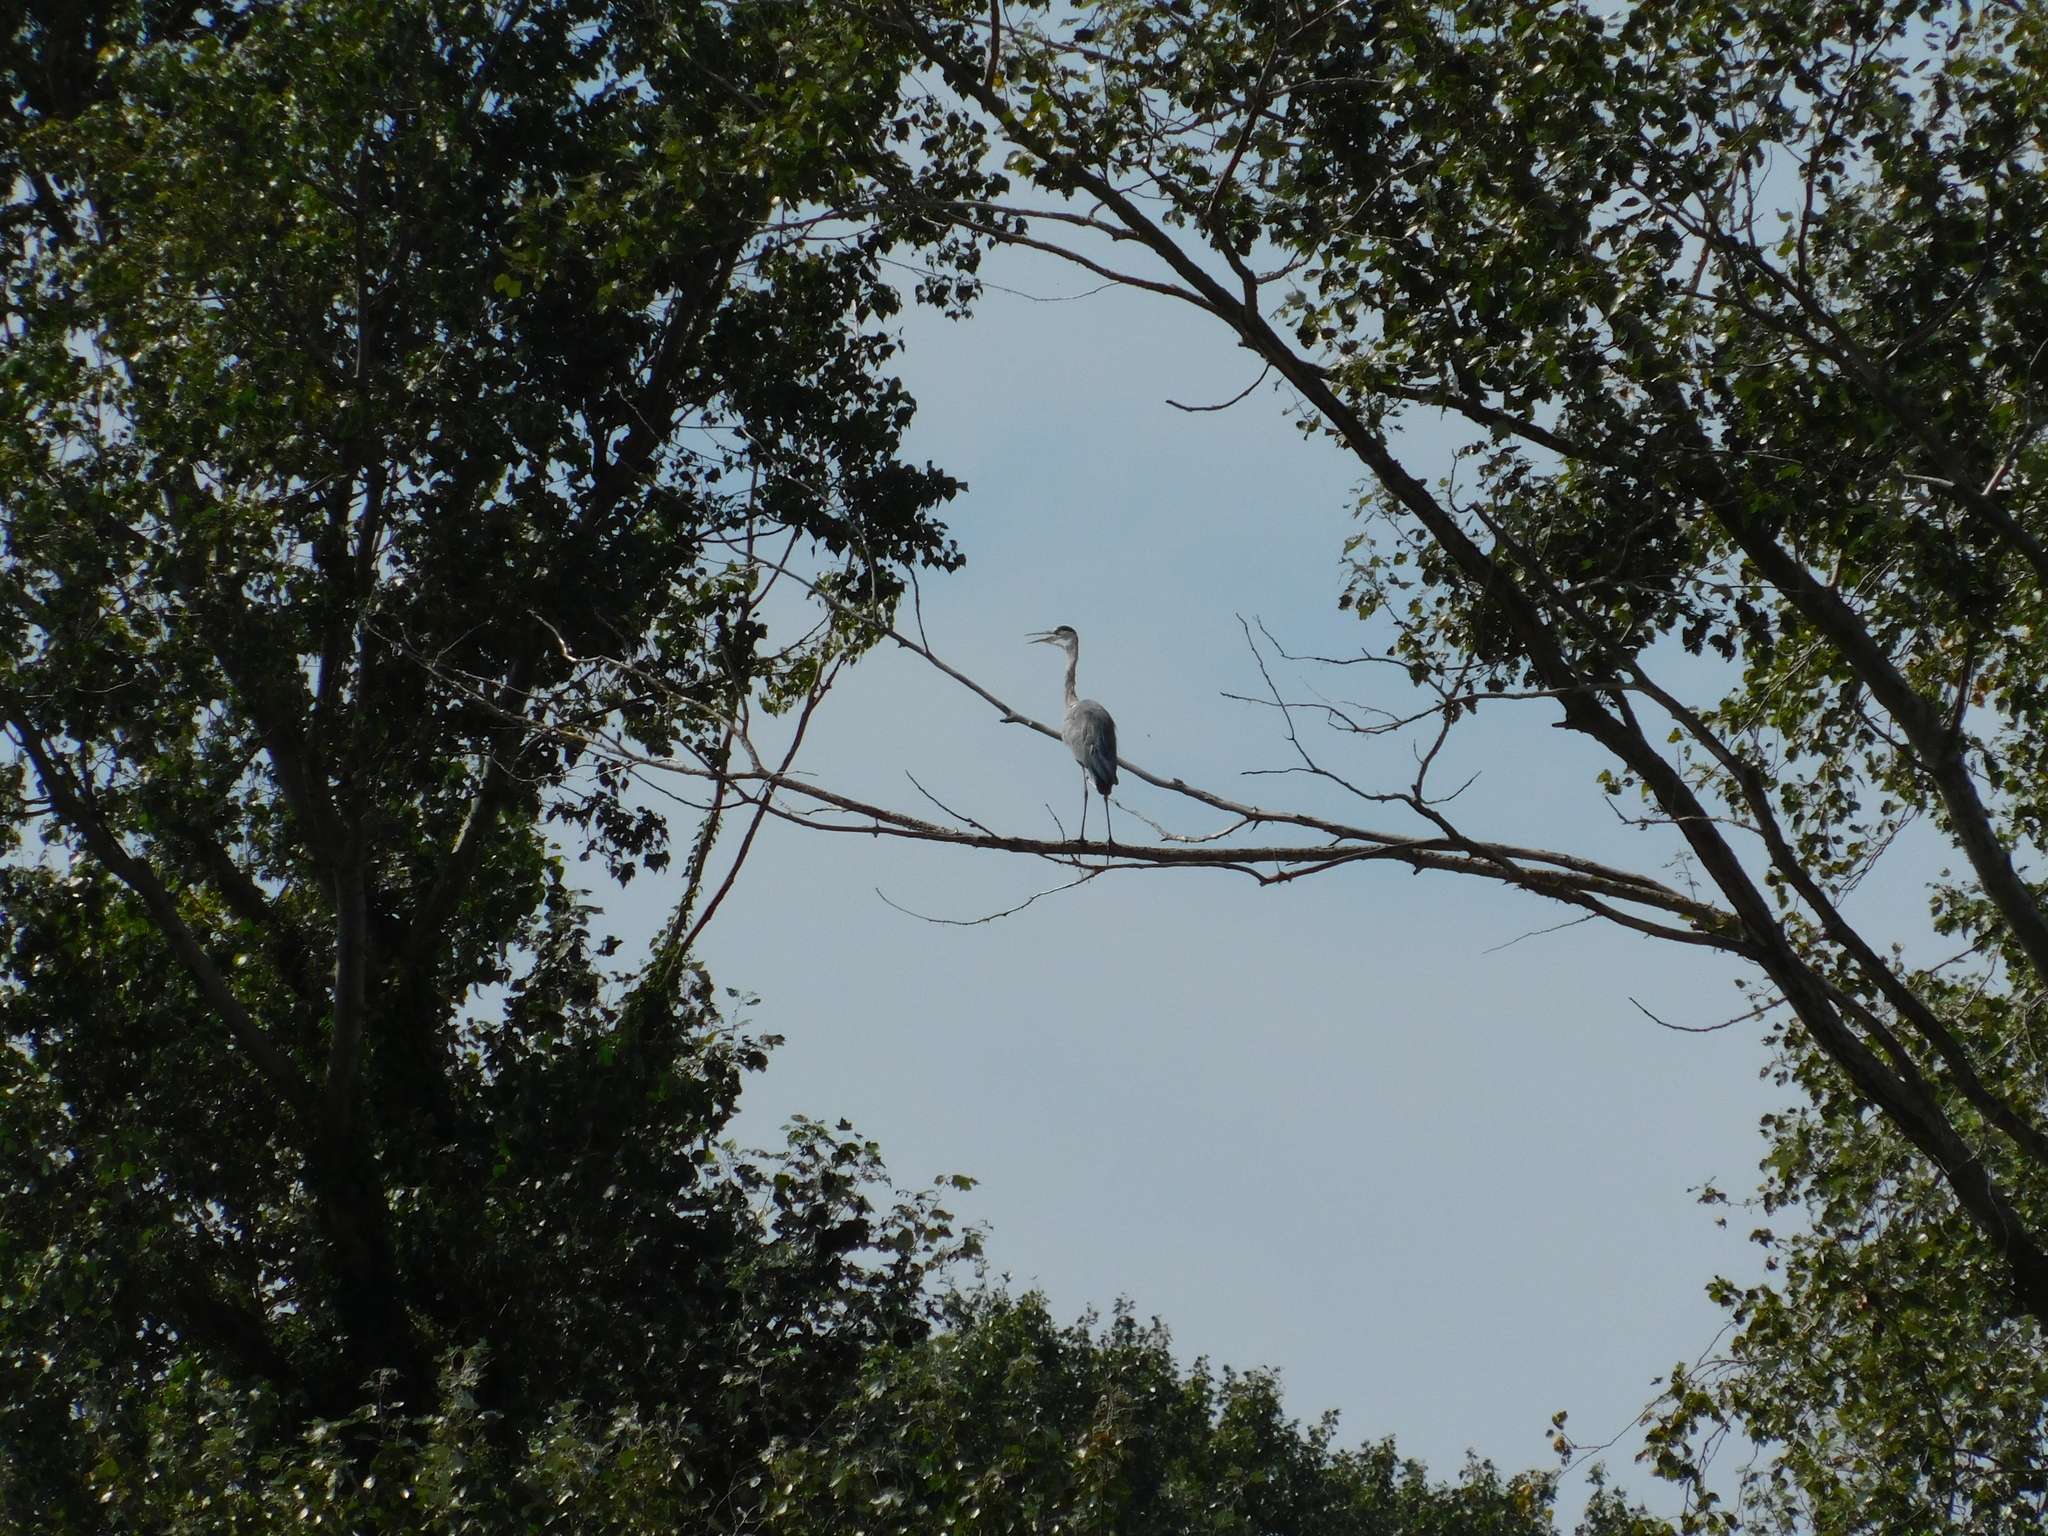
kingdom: Animalia
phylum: Chordata
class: Aves
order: Pelecaniformes
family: Ardeidae
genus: Ardea
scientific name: Ardea cinerea
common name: Grey heron
